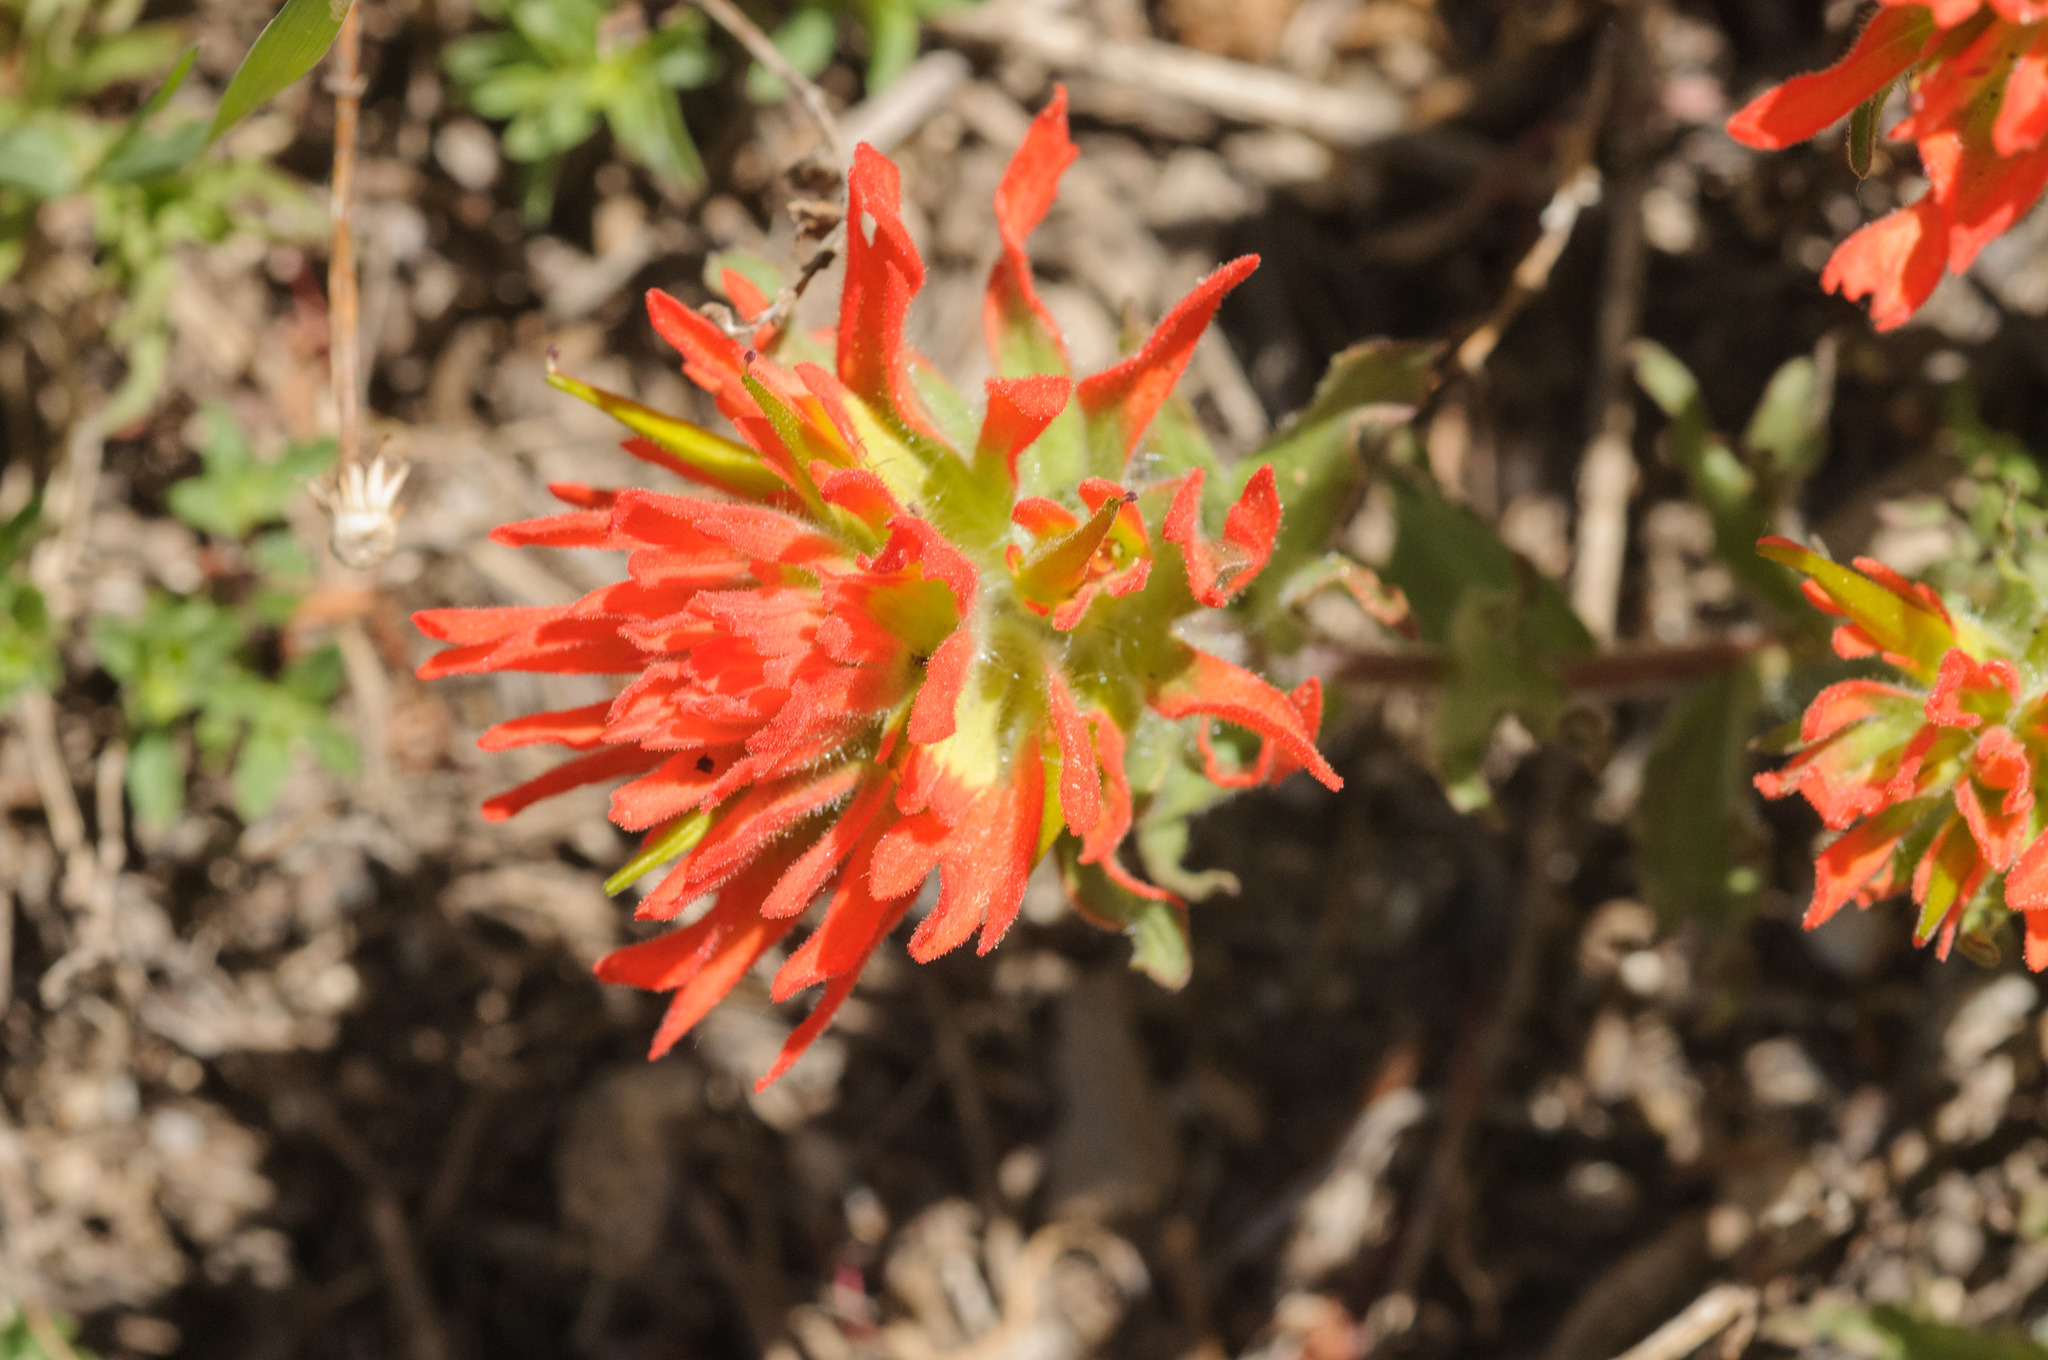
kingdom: Plantae
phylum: Tracheophyta
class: Magnoliopsida
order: Lamiales
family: Orobanchaceae
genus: Castilleja
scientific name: Castilleja applegatei
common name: Wavy-leaf paintbrush
